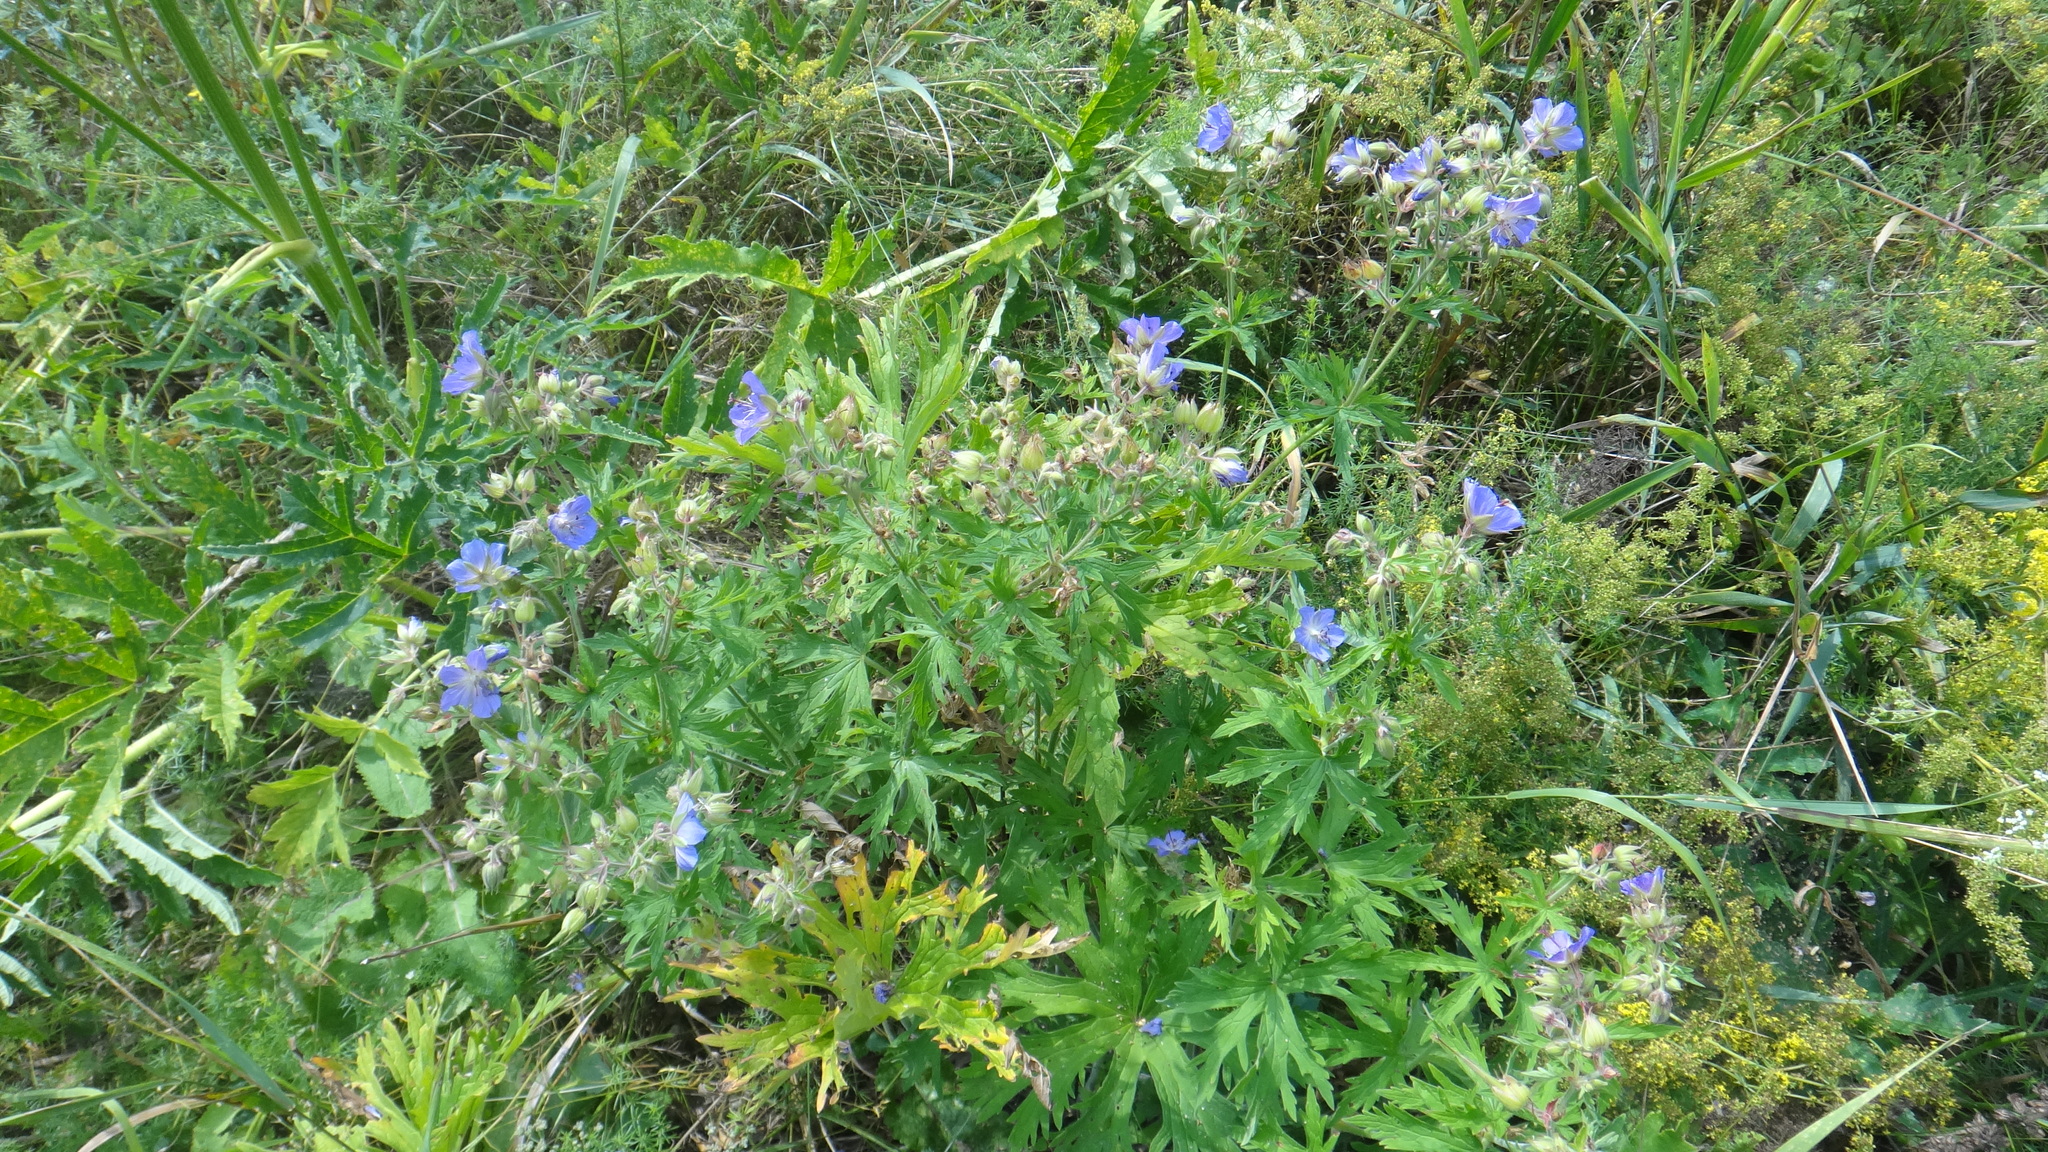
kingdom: Plantae
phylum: Tracheophyta
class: Magnoliopsida
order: Geraniales
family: Geraniaceae
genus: Geranium
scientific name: Geranium pratense
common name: Meadow crane's-bill
